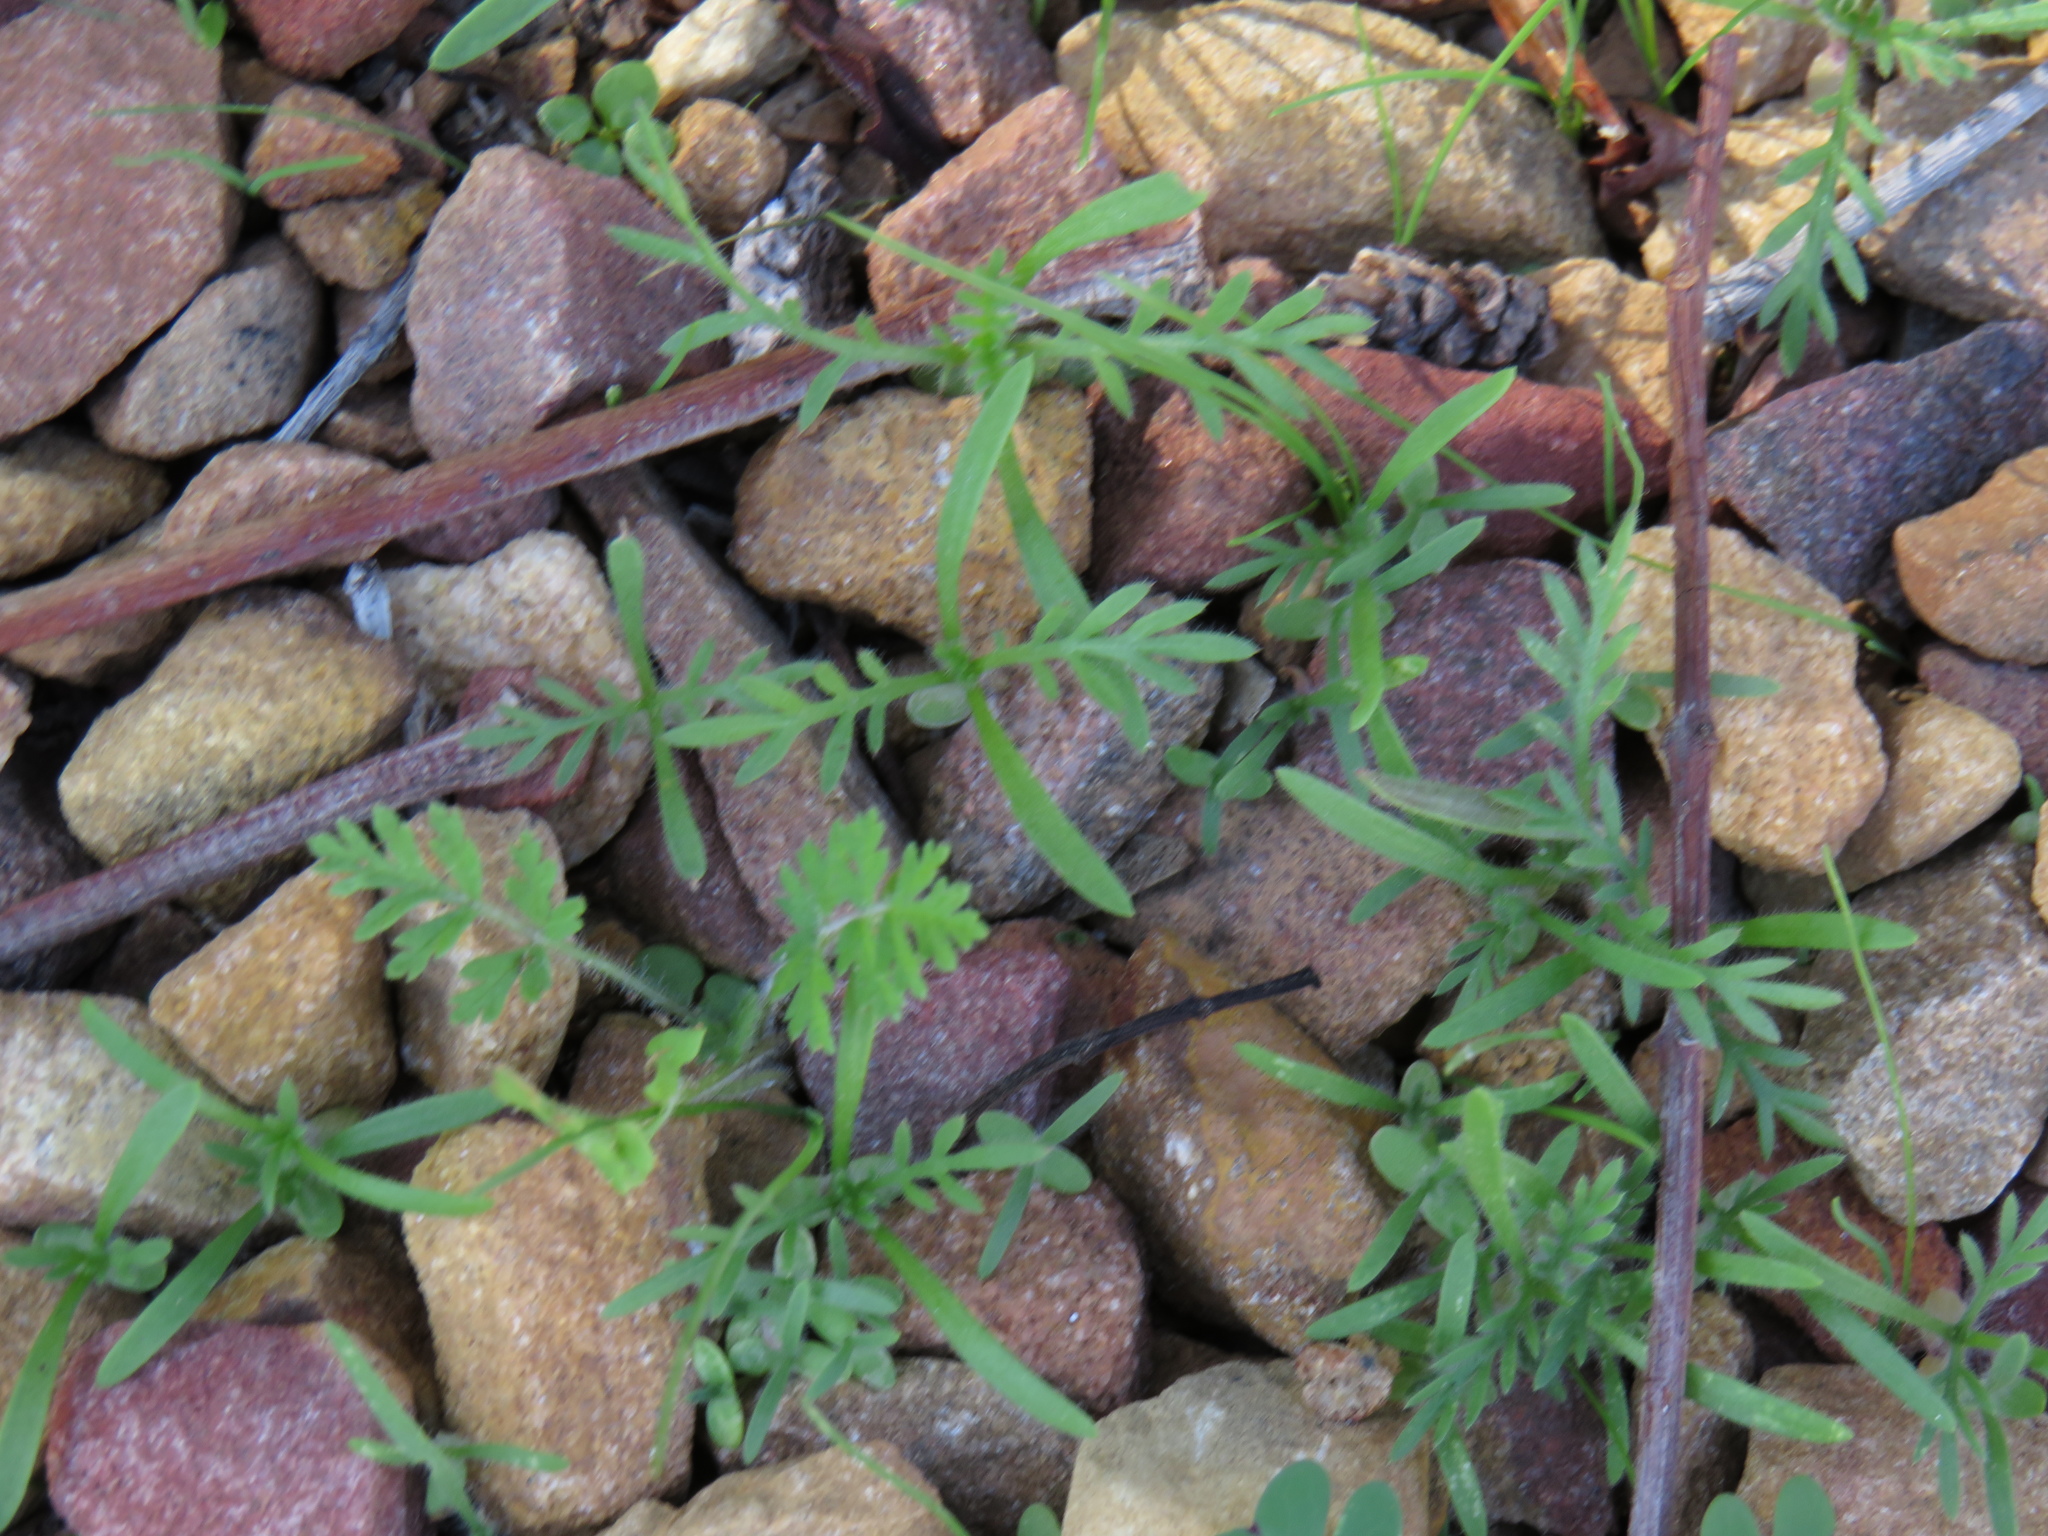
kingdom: Plantae
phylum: Tracheophyta
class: Magnoliopsida
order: Asterales
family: Asteraceae
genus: Cotula
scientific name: Cotula turbinata
